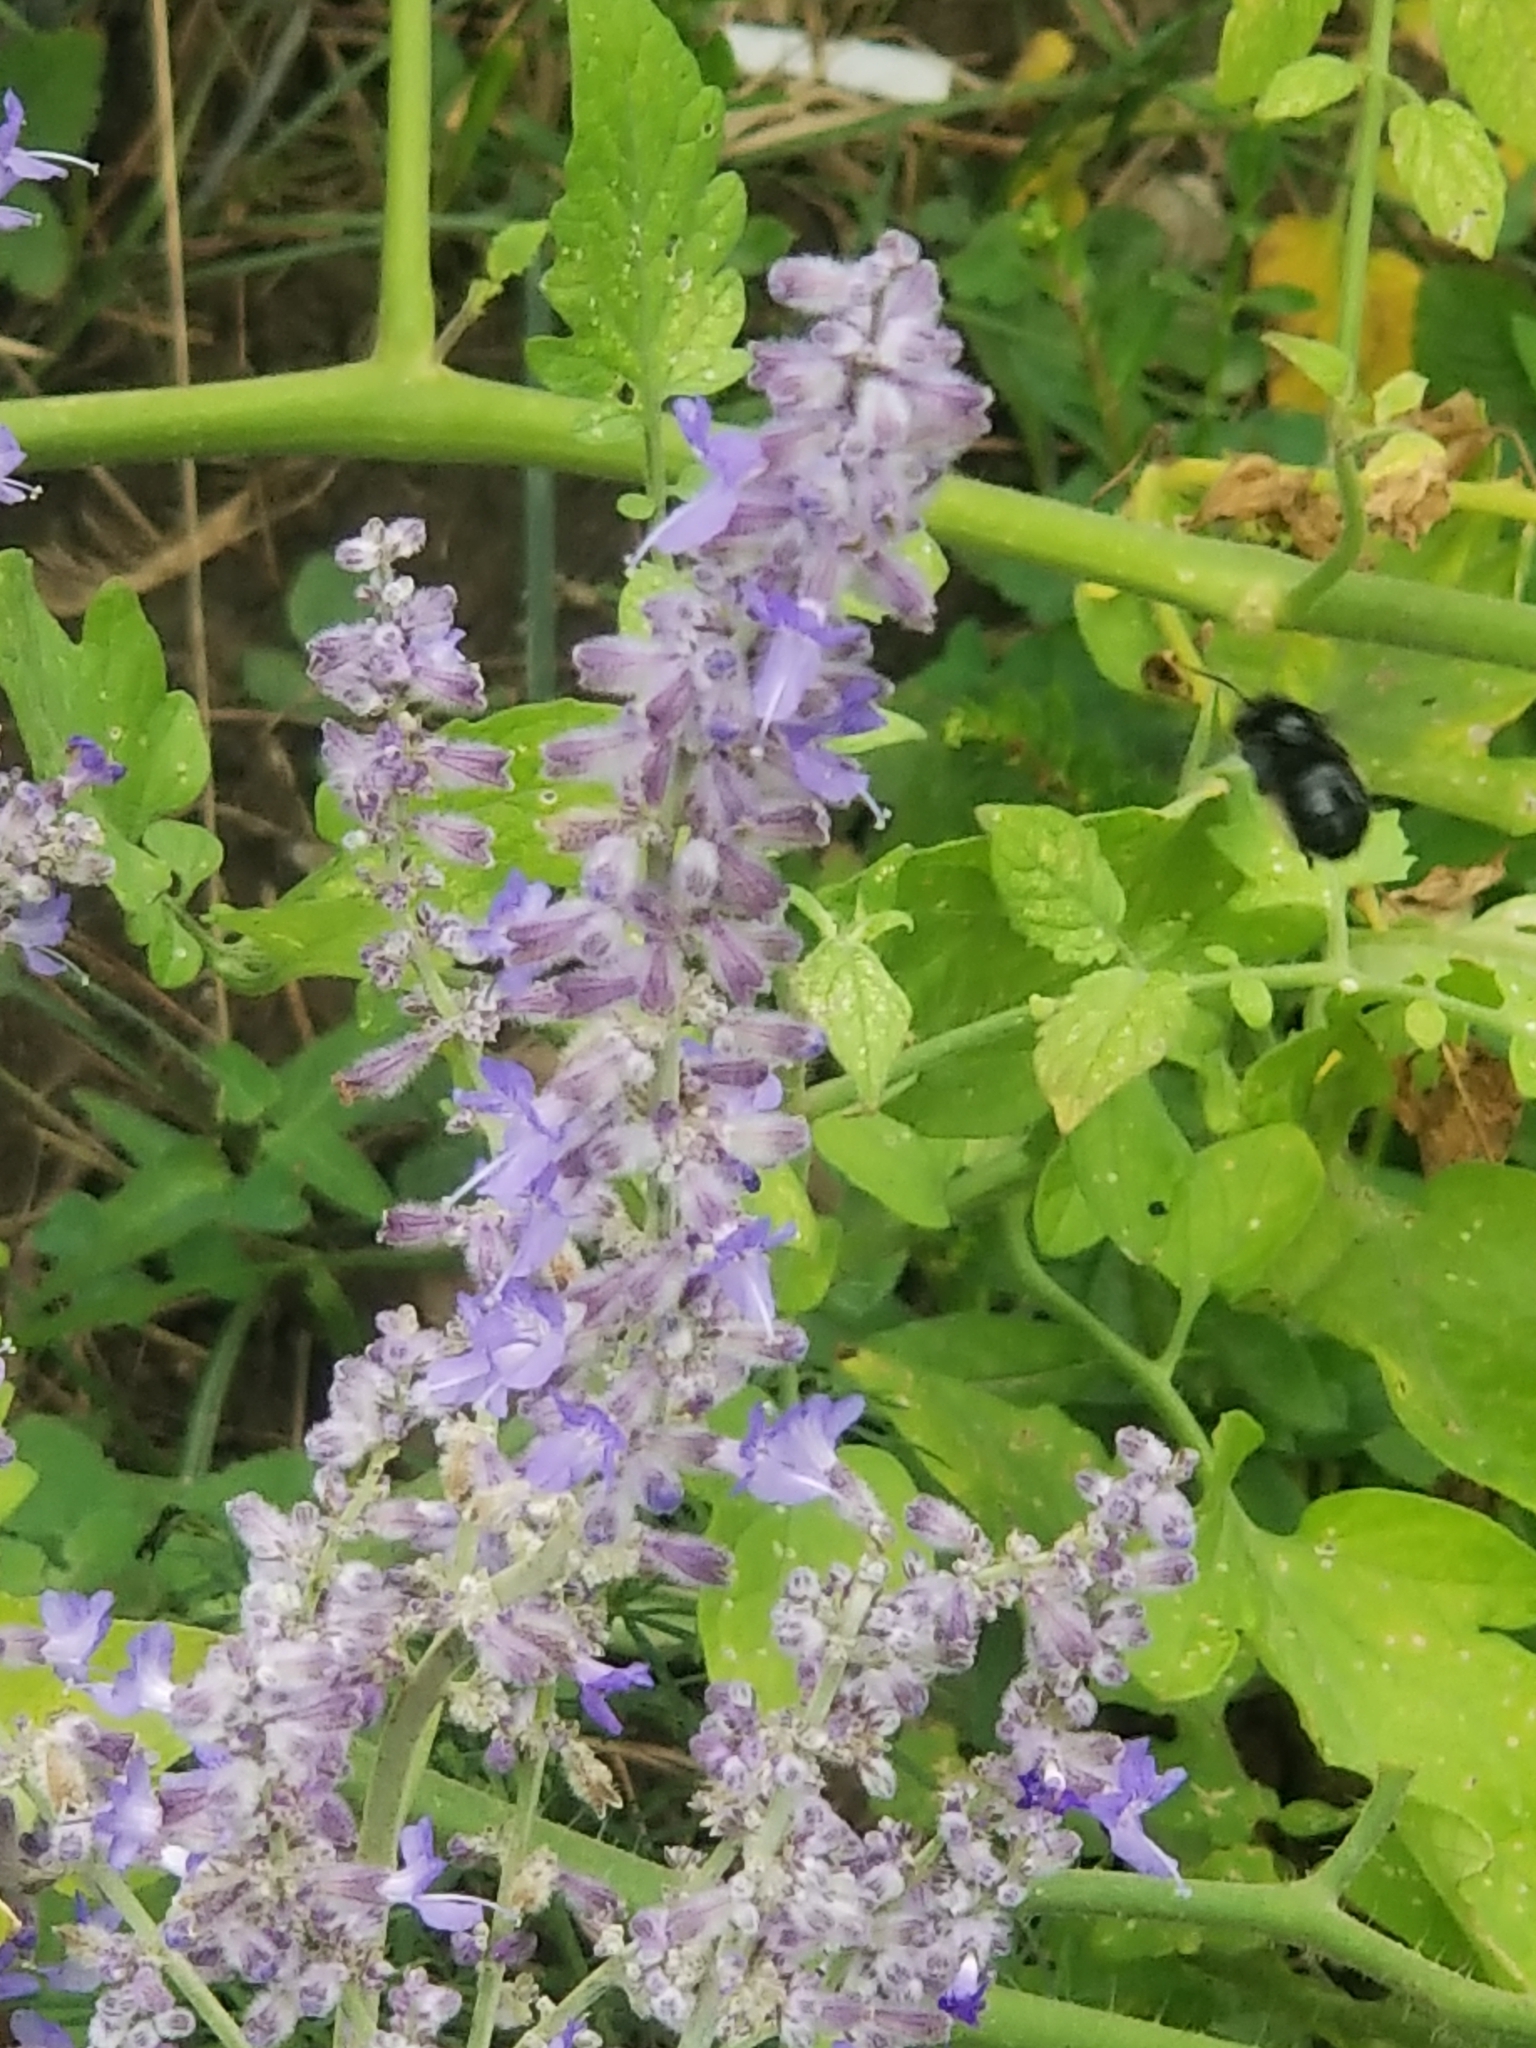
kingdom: Animalia
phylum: Arthropoda
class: Insecta
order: Hymenoptera
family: Apidae
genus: Melissodes
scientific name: Melissodes bimaculatus
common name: Two-spotted long-horned bee
